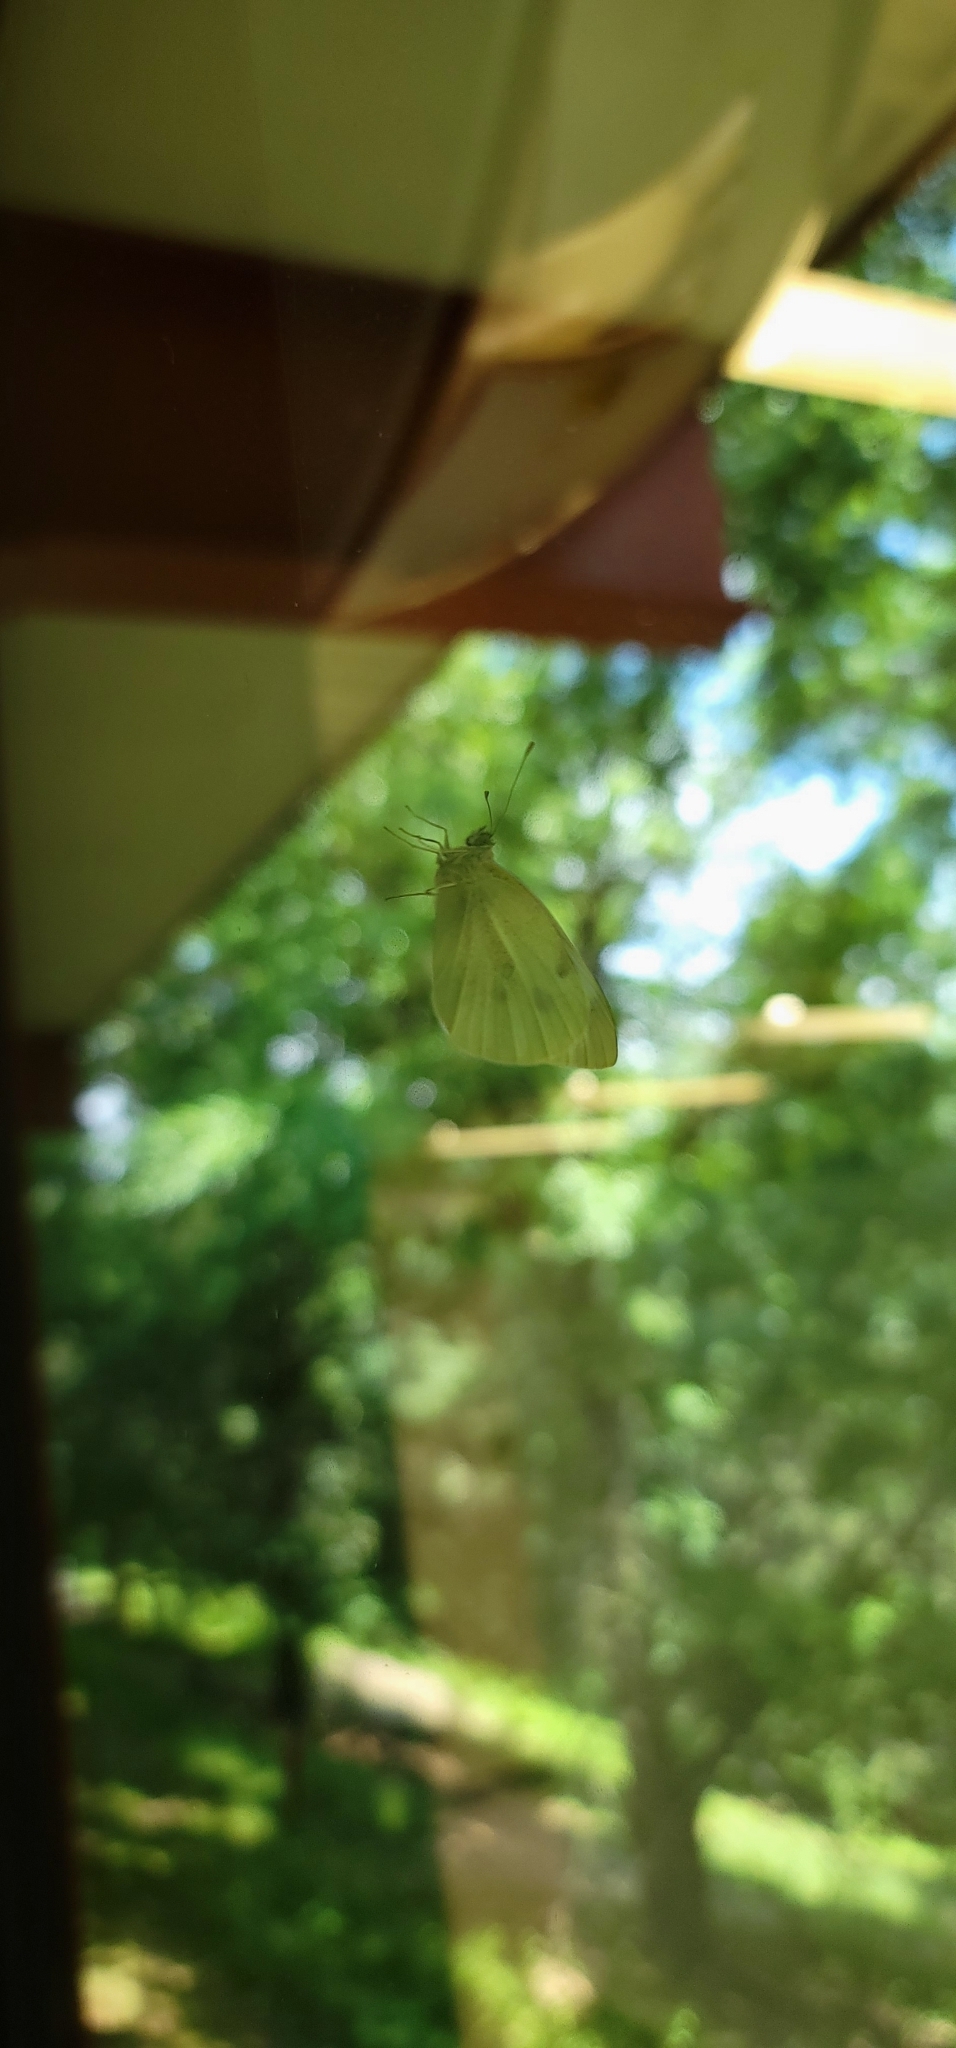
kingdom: Animalia
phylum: Arthropoda
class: Insecta
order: Lepidoptera
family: Pieridae
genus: Pieris
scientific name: Pieris rapae
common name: Small white
